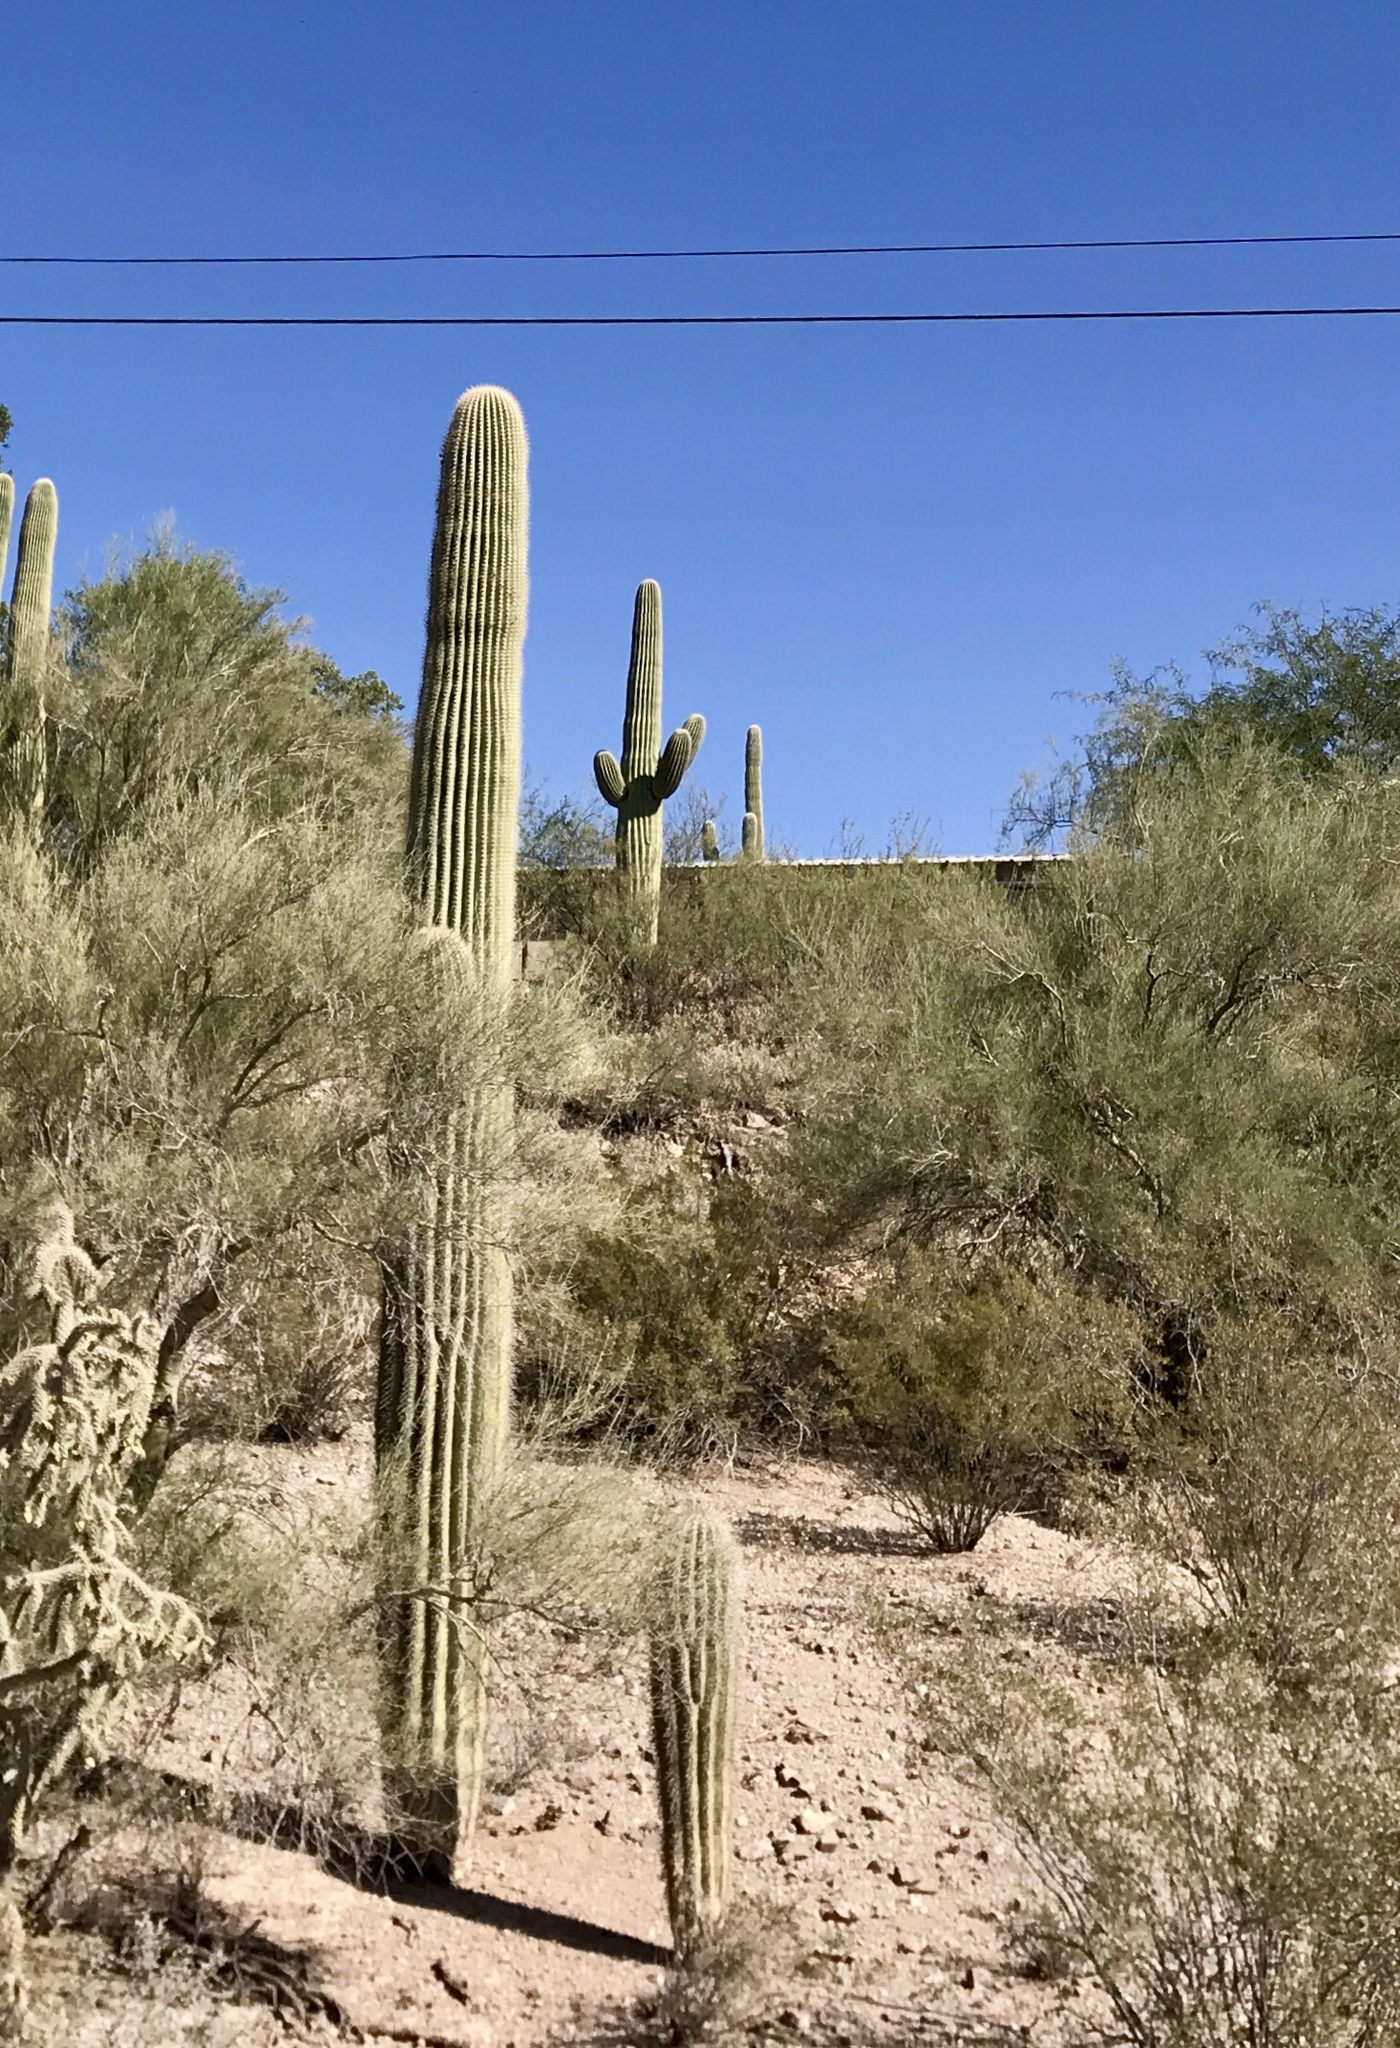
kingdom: Plantae
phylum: Tracheophyta
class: Magnoliopsida
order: Caryophyllales
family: Cactaceae
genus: Carnegiea
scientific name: Carnegiea gigantea
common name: Saguaro
